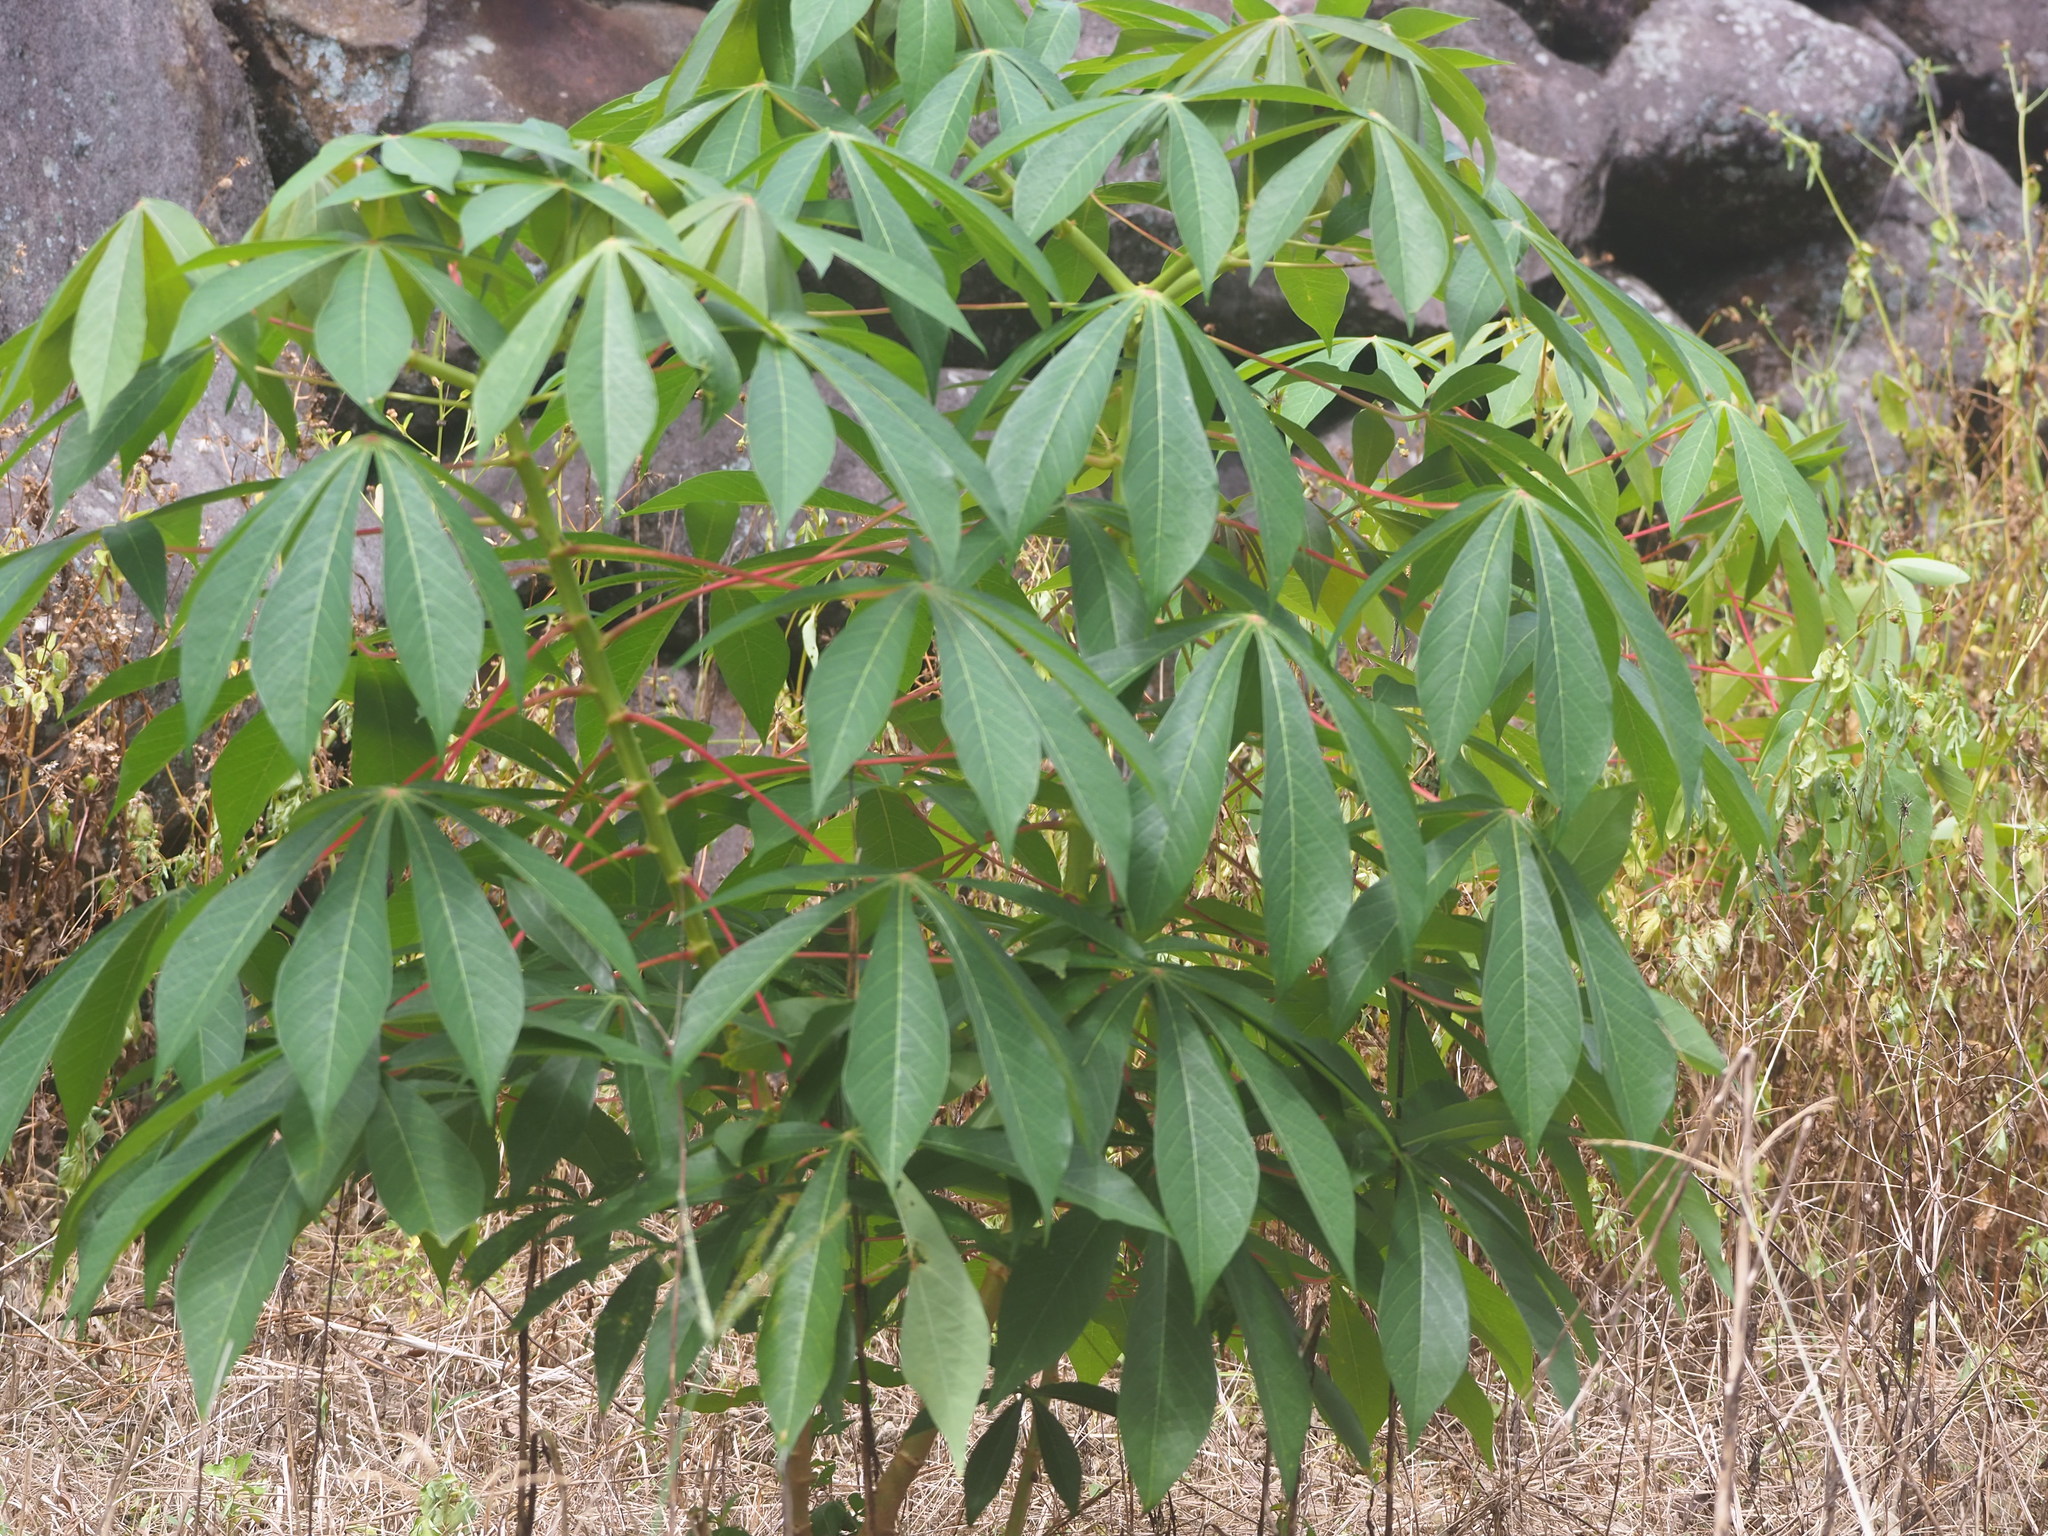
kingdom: Plantae
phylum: Tracheophyta
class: Magnoliopsida
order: Malpighiales
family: Euphorbiaceae
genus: Manihot
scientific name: Manihot esculenta
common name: Cassava
